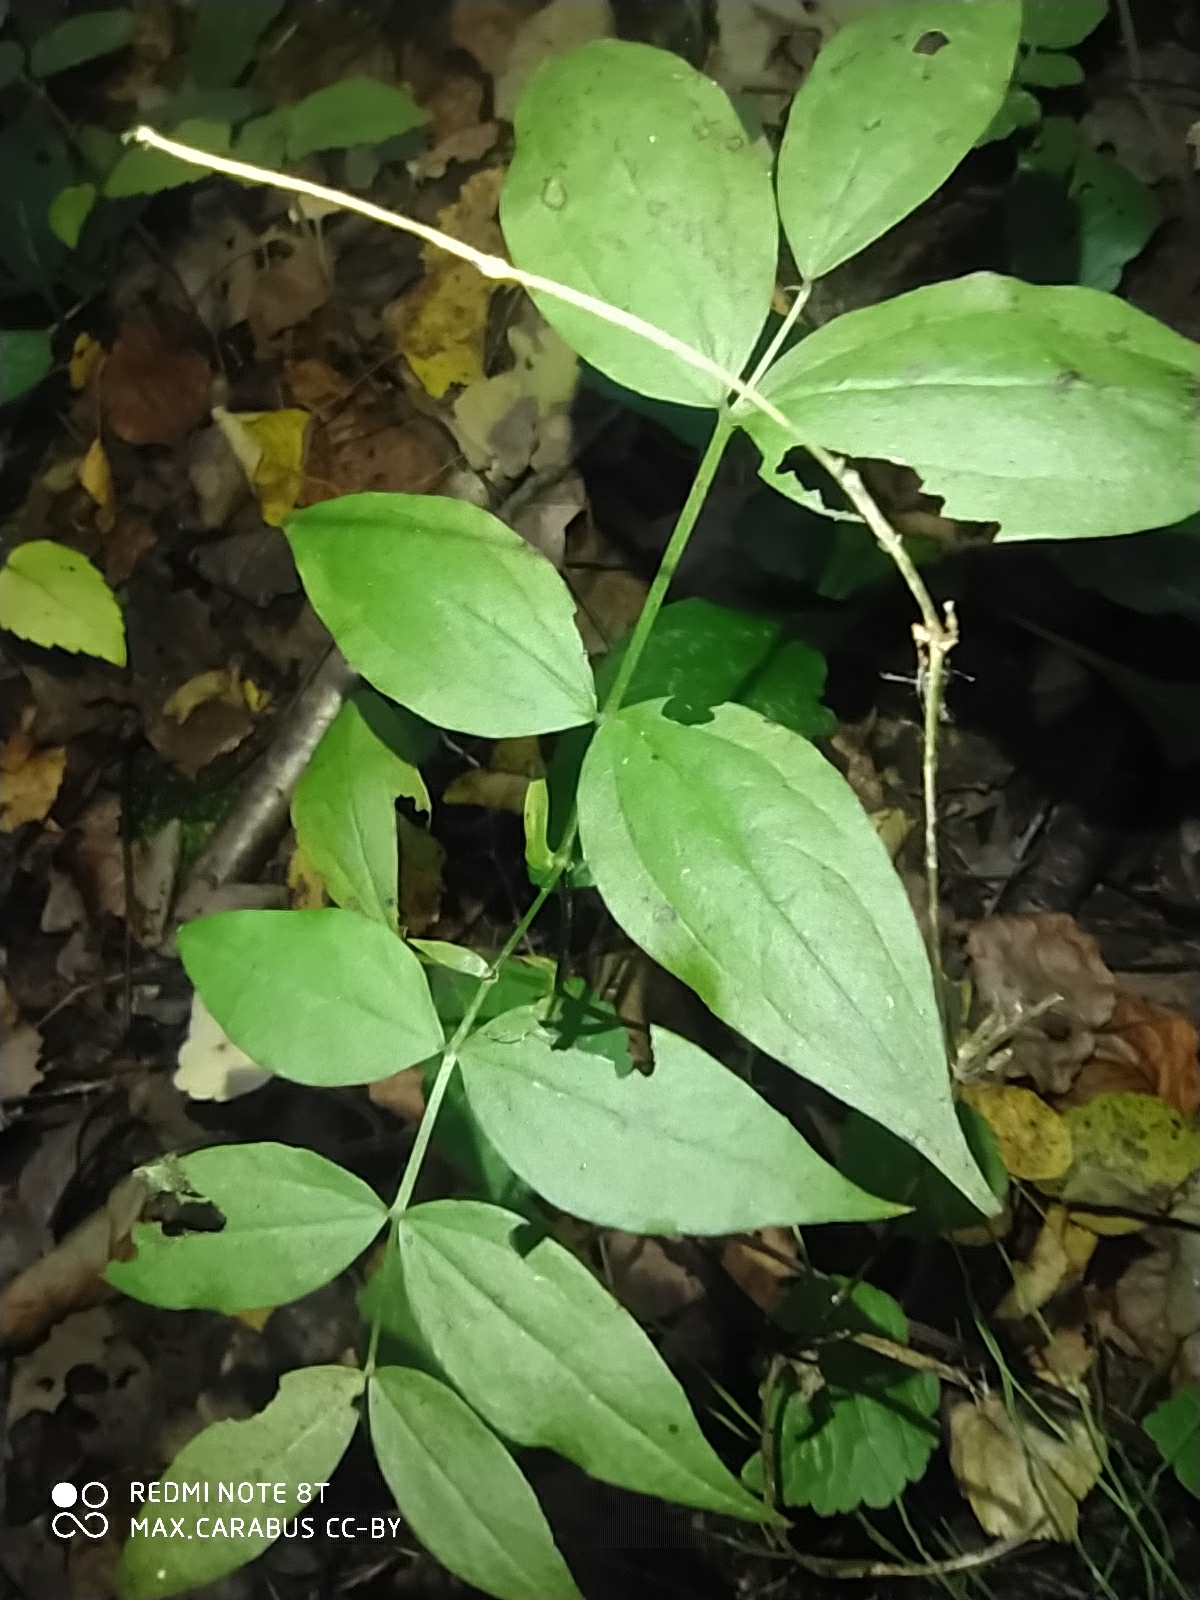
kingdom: Plantae
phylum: Tracheophyta
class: Magnoliopsida
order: Fabales
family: Fabaceae
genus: Lathyrus
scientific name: Lathyrus vernus
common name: Spring pea
